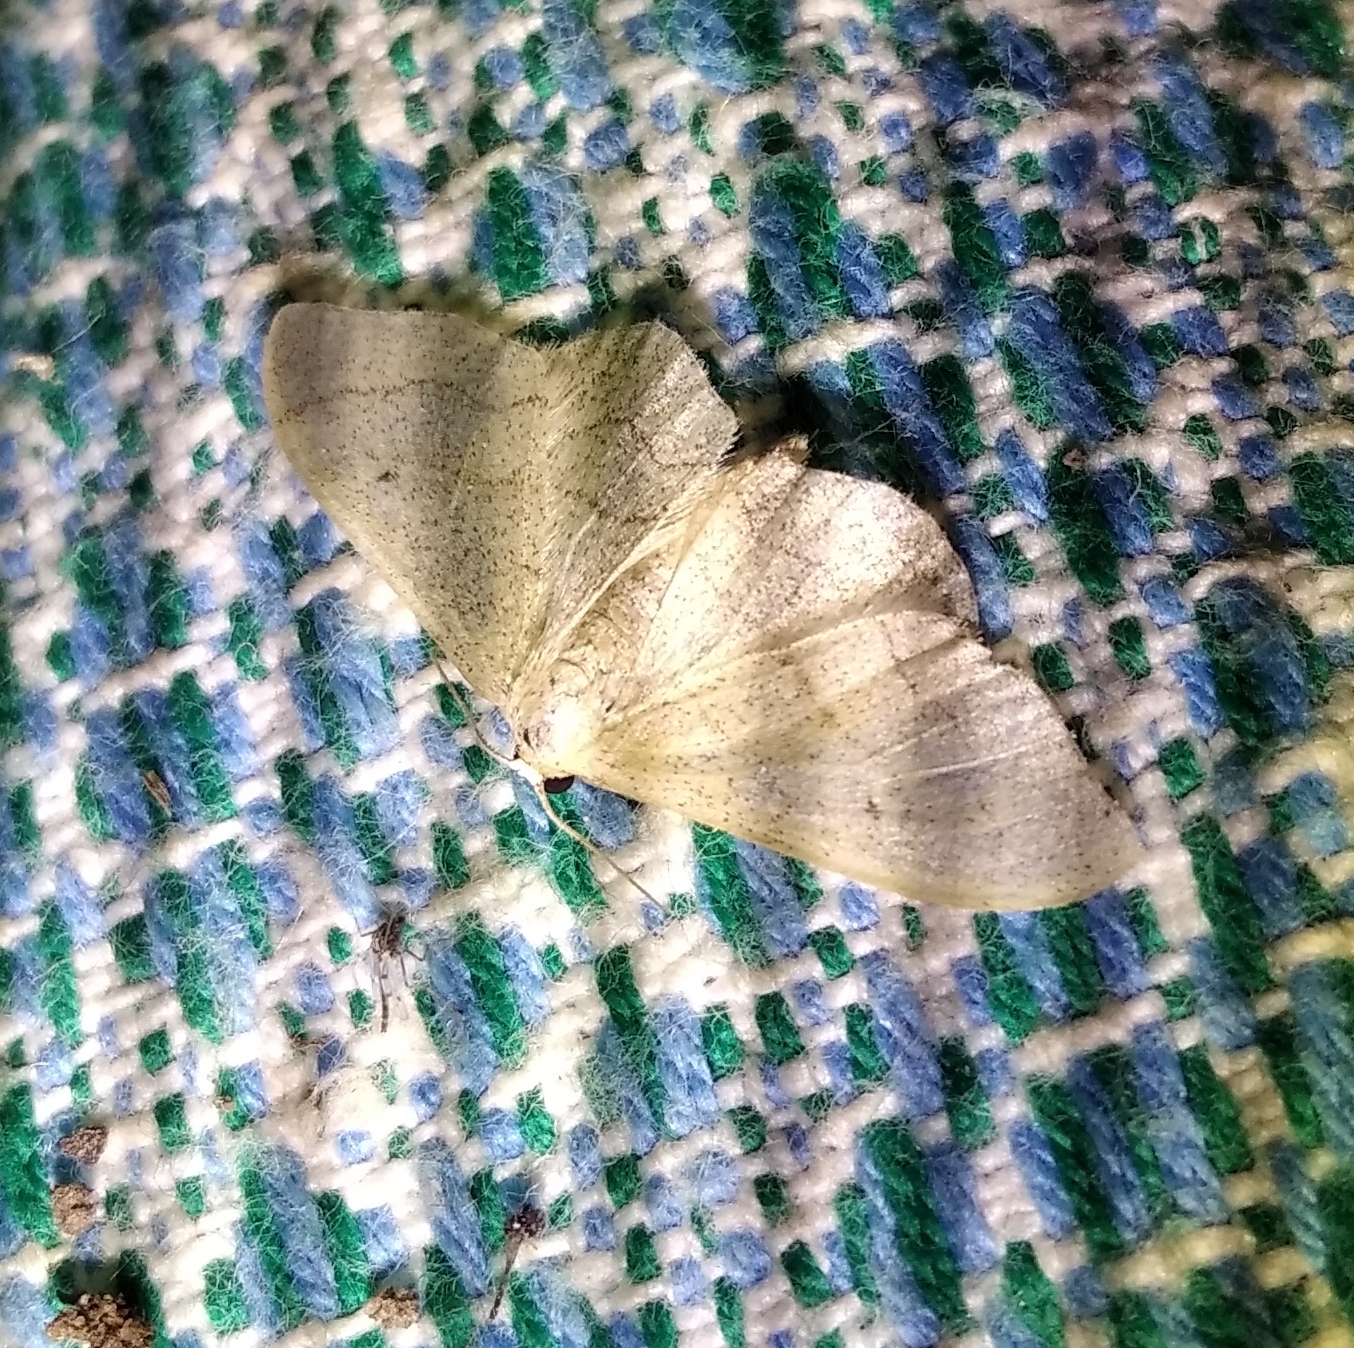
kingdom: Animalia
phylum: Arthropoda
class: Insecta
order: Lepidoptera
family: Geometridae
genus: Idaea
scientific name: Idaea straminata
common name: Plain wave
